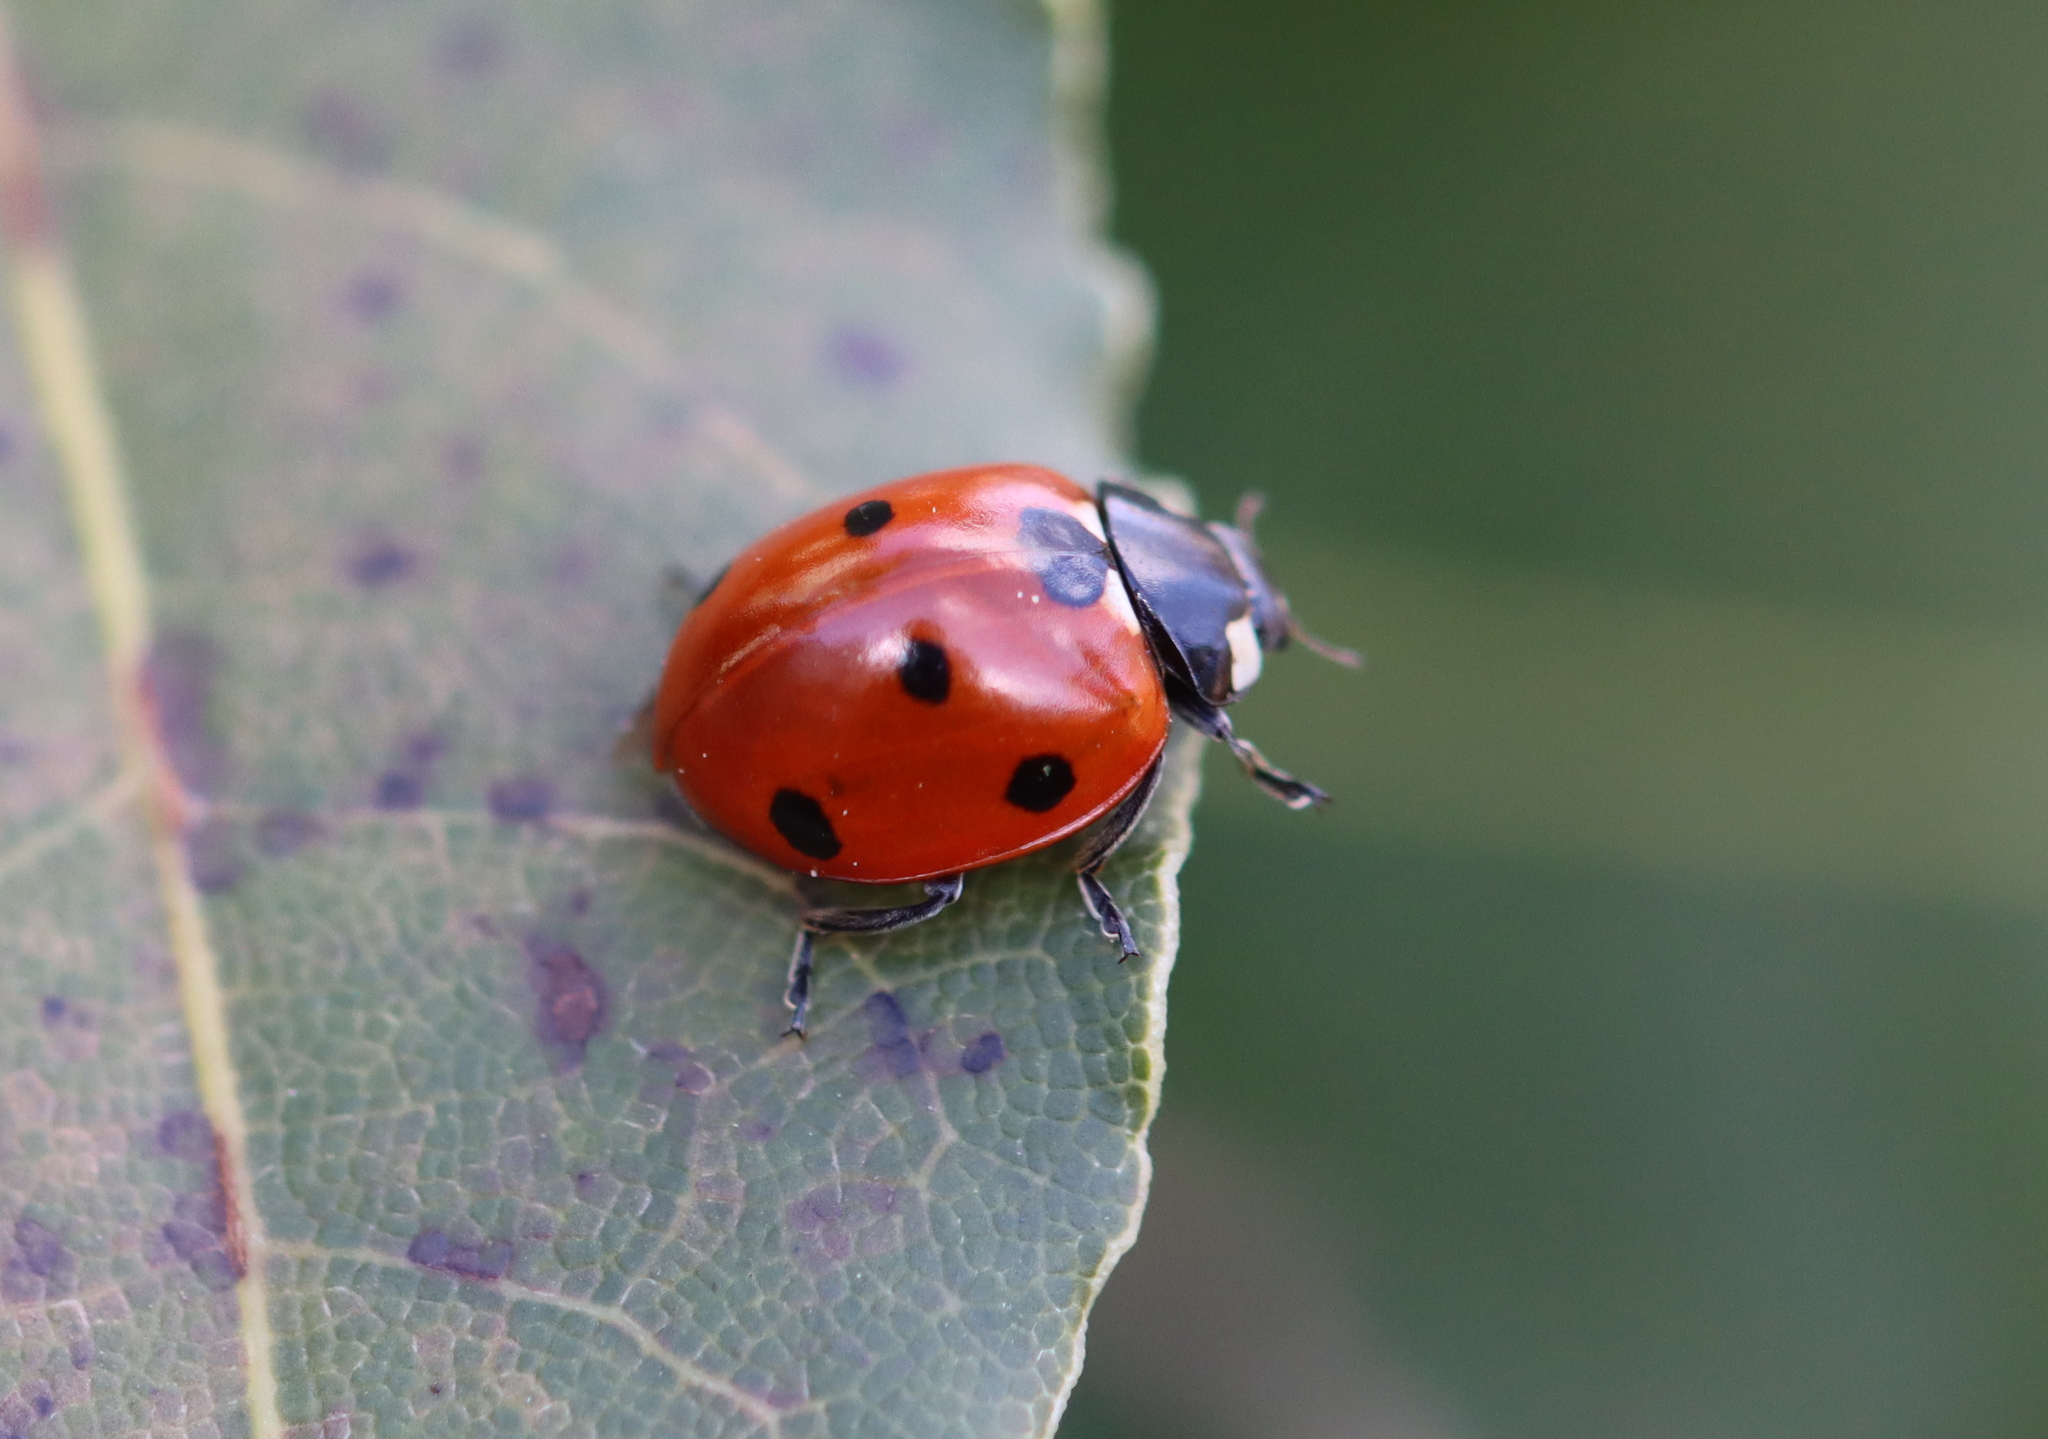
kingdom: Animalia
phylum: Arthropoda
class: Insecta
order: Coleoptera
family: Coccinellidae
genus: Coccinella
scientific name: Coccinella septempunctata
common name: Sevenspotted lady beetle
